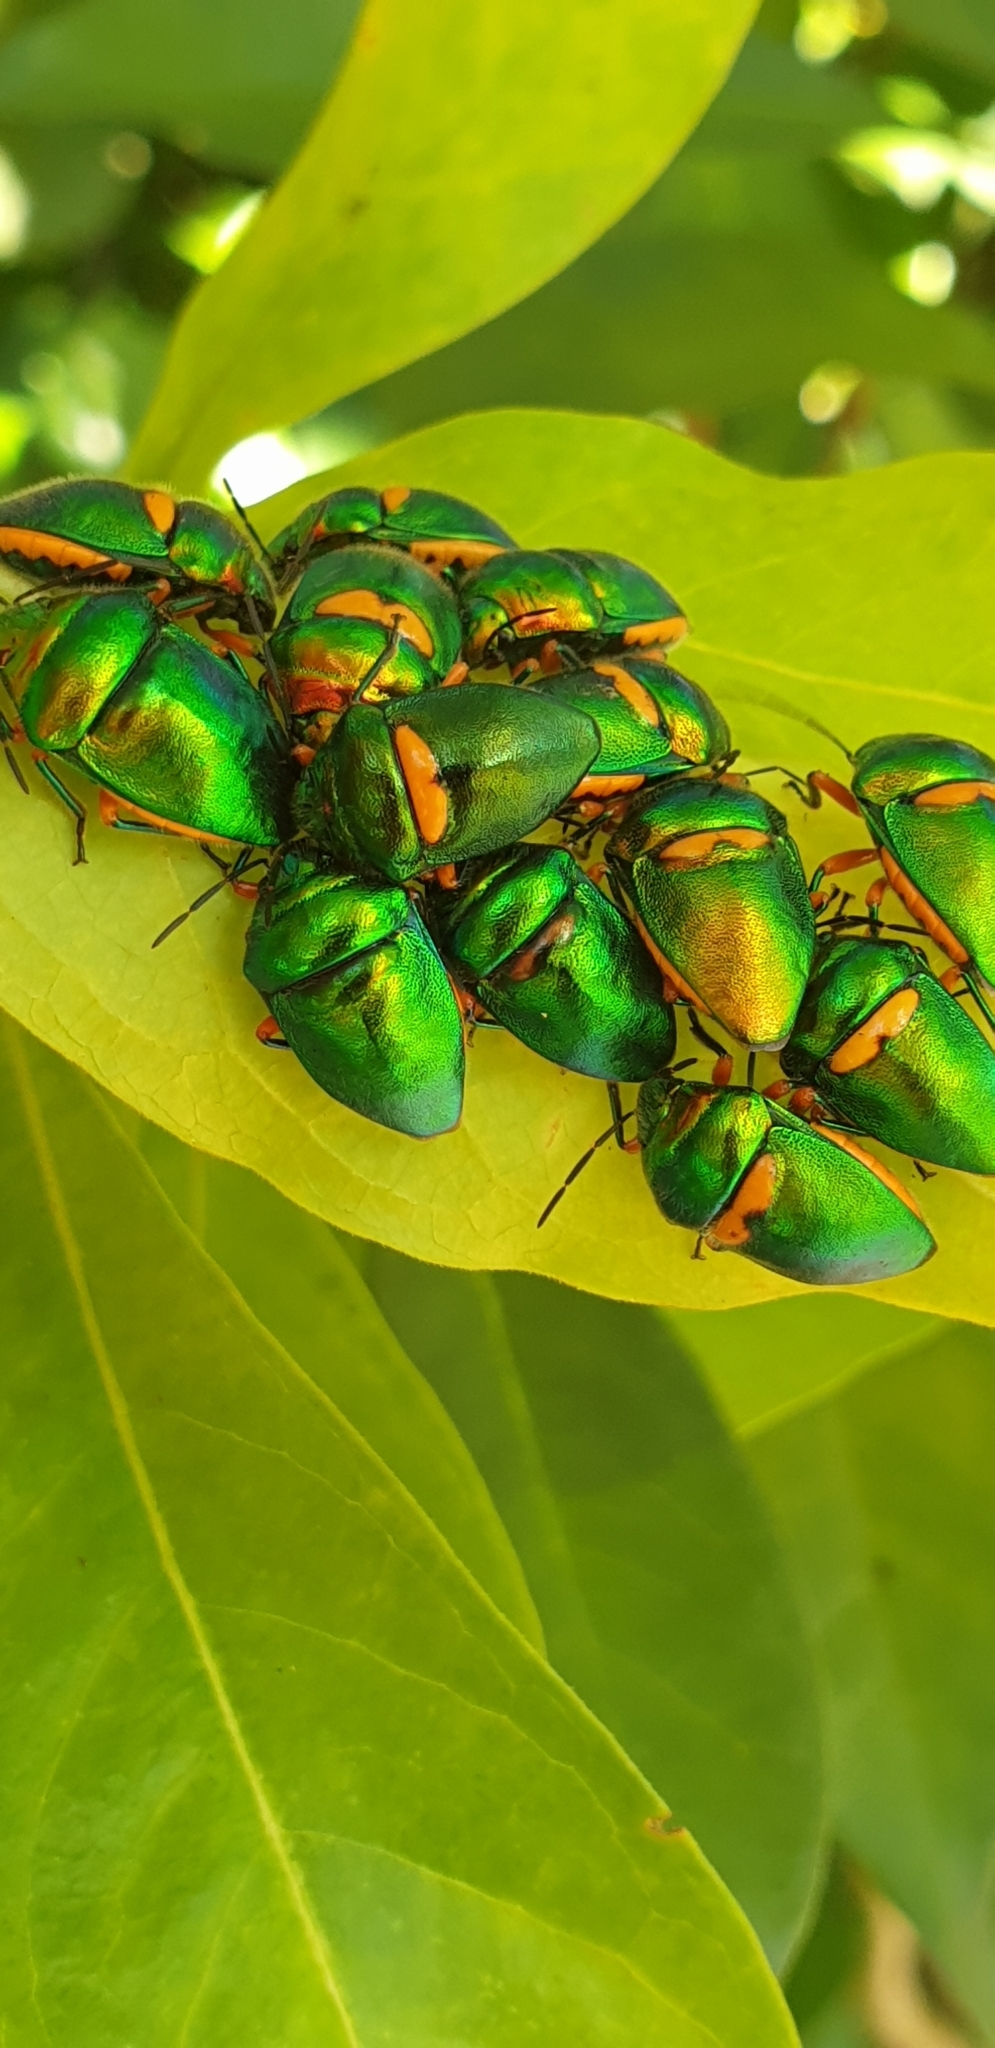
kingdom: Animalia
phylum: Arthropoda
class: Insecta
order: Hemiptera
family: Scutelleridae
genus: Lampromicra
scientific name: Lampromicra senator
